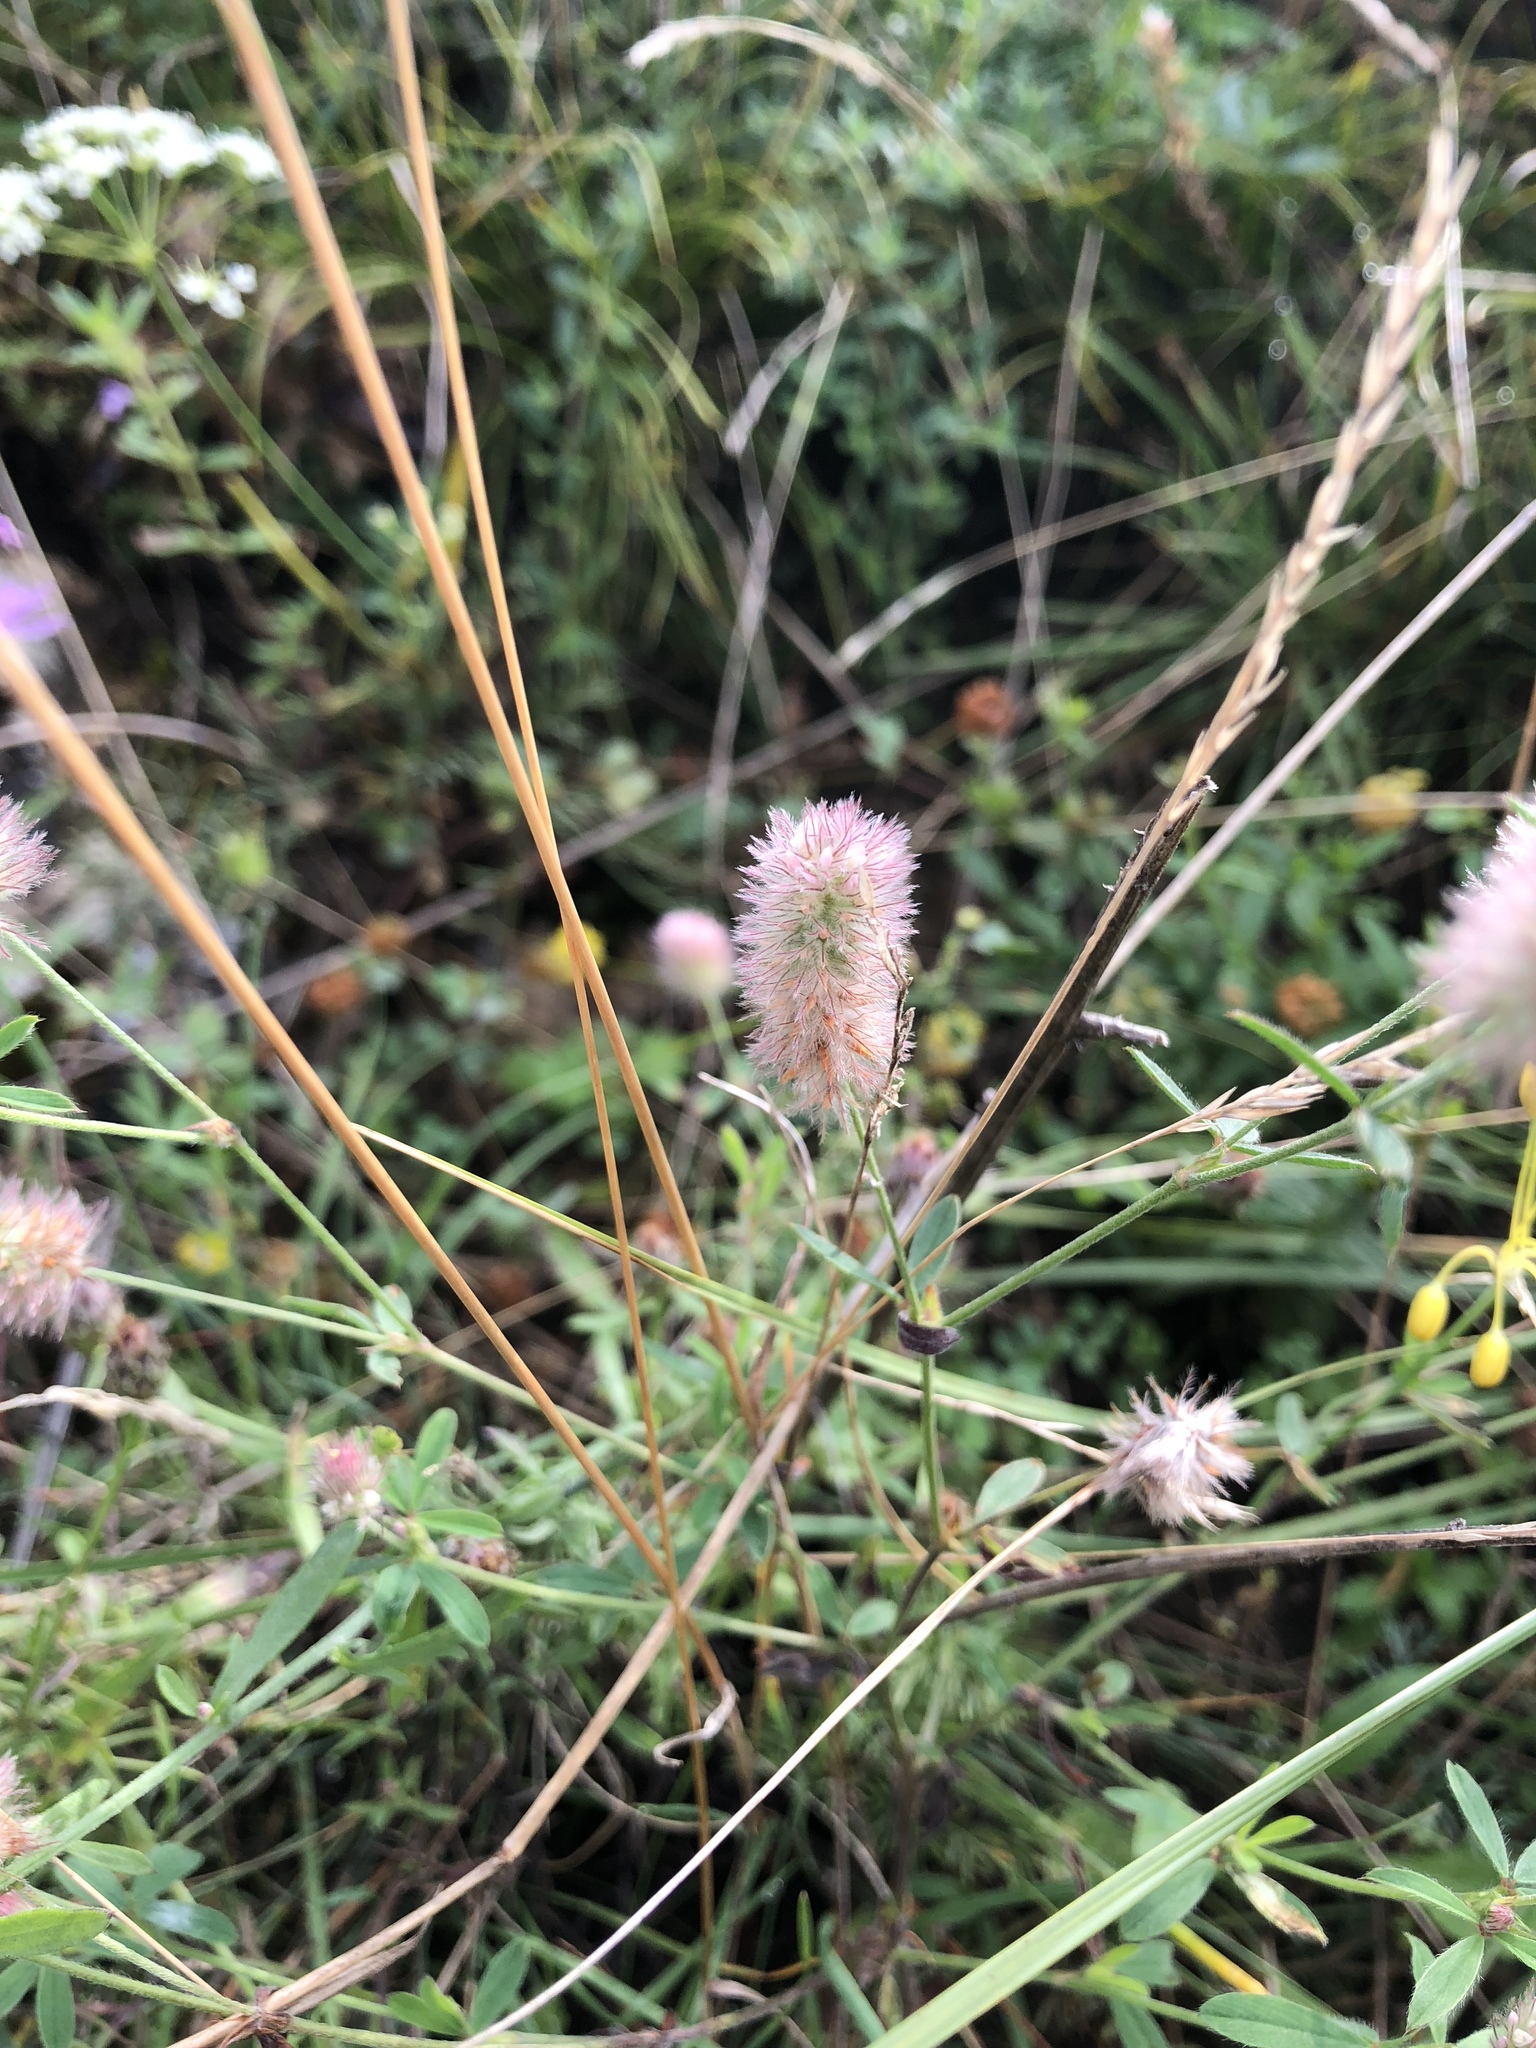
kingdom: Plantae
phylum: Tracheophyta
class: Magnoliopsida
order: Fabales
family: Fabaceae
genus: Trifolium
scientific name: Trifolium arvense
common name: Hare's-foot clover
